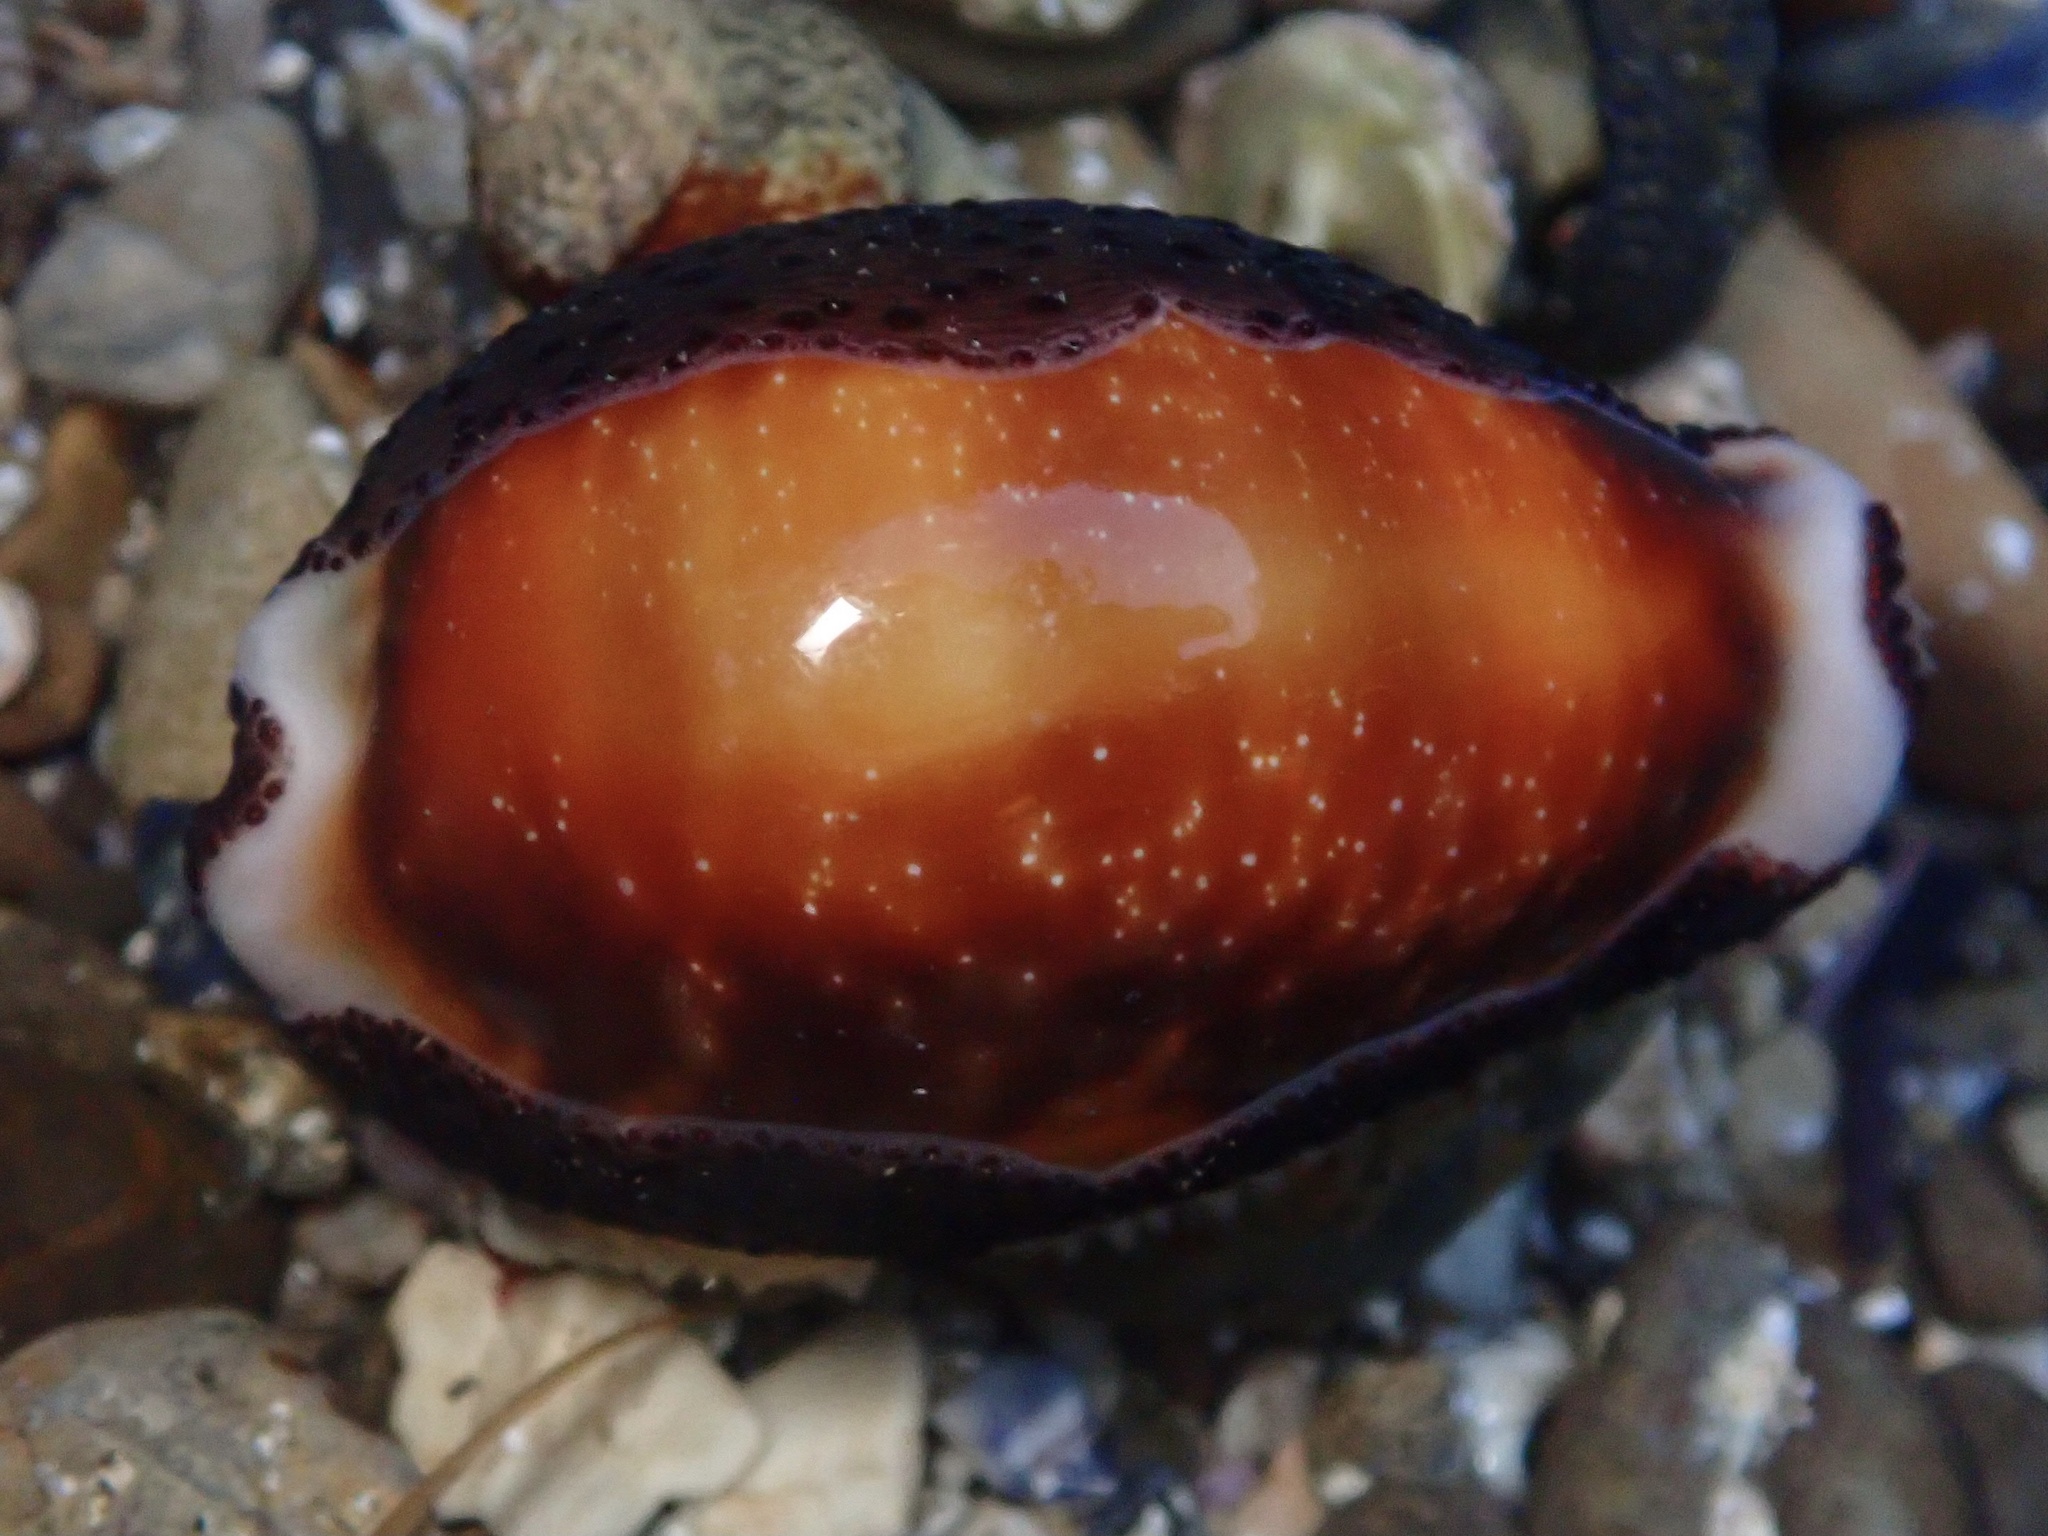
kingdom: Animalia
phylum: Mollusca
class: Gastropoda
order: Littorinimorpha
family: Cypraeidae
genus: Neobernaya
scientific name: Neobernaya spadicea
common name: Chestnut cowrie
